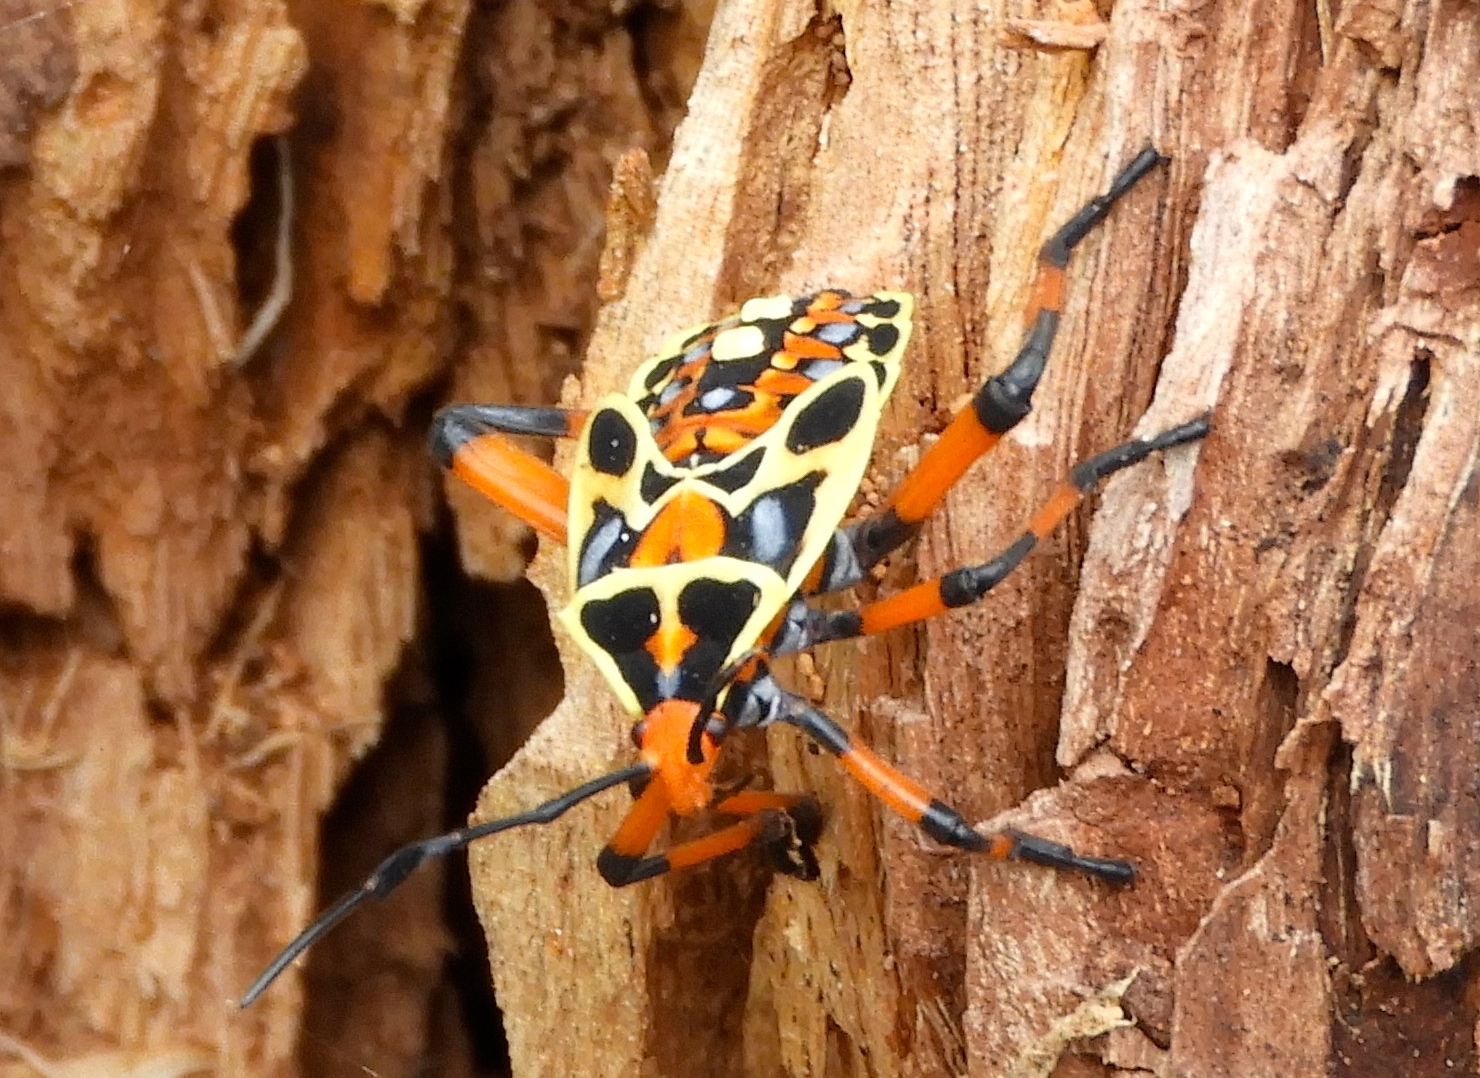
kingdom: Animalia
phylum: Arthropoda
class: Insecta
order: Hemiptera
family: Coreidae
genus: Pachylis
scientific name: Pachylis nervosus
